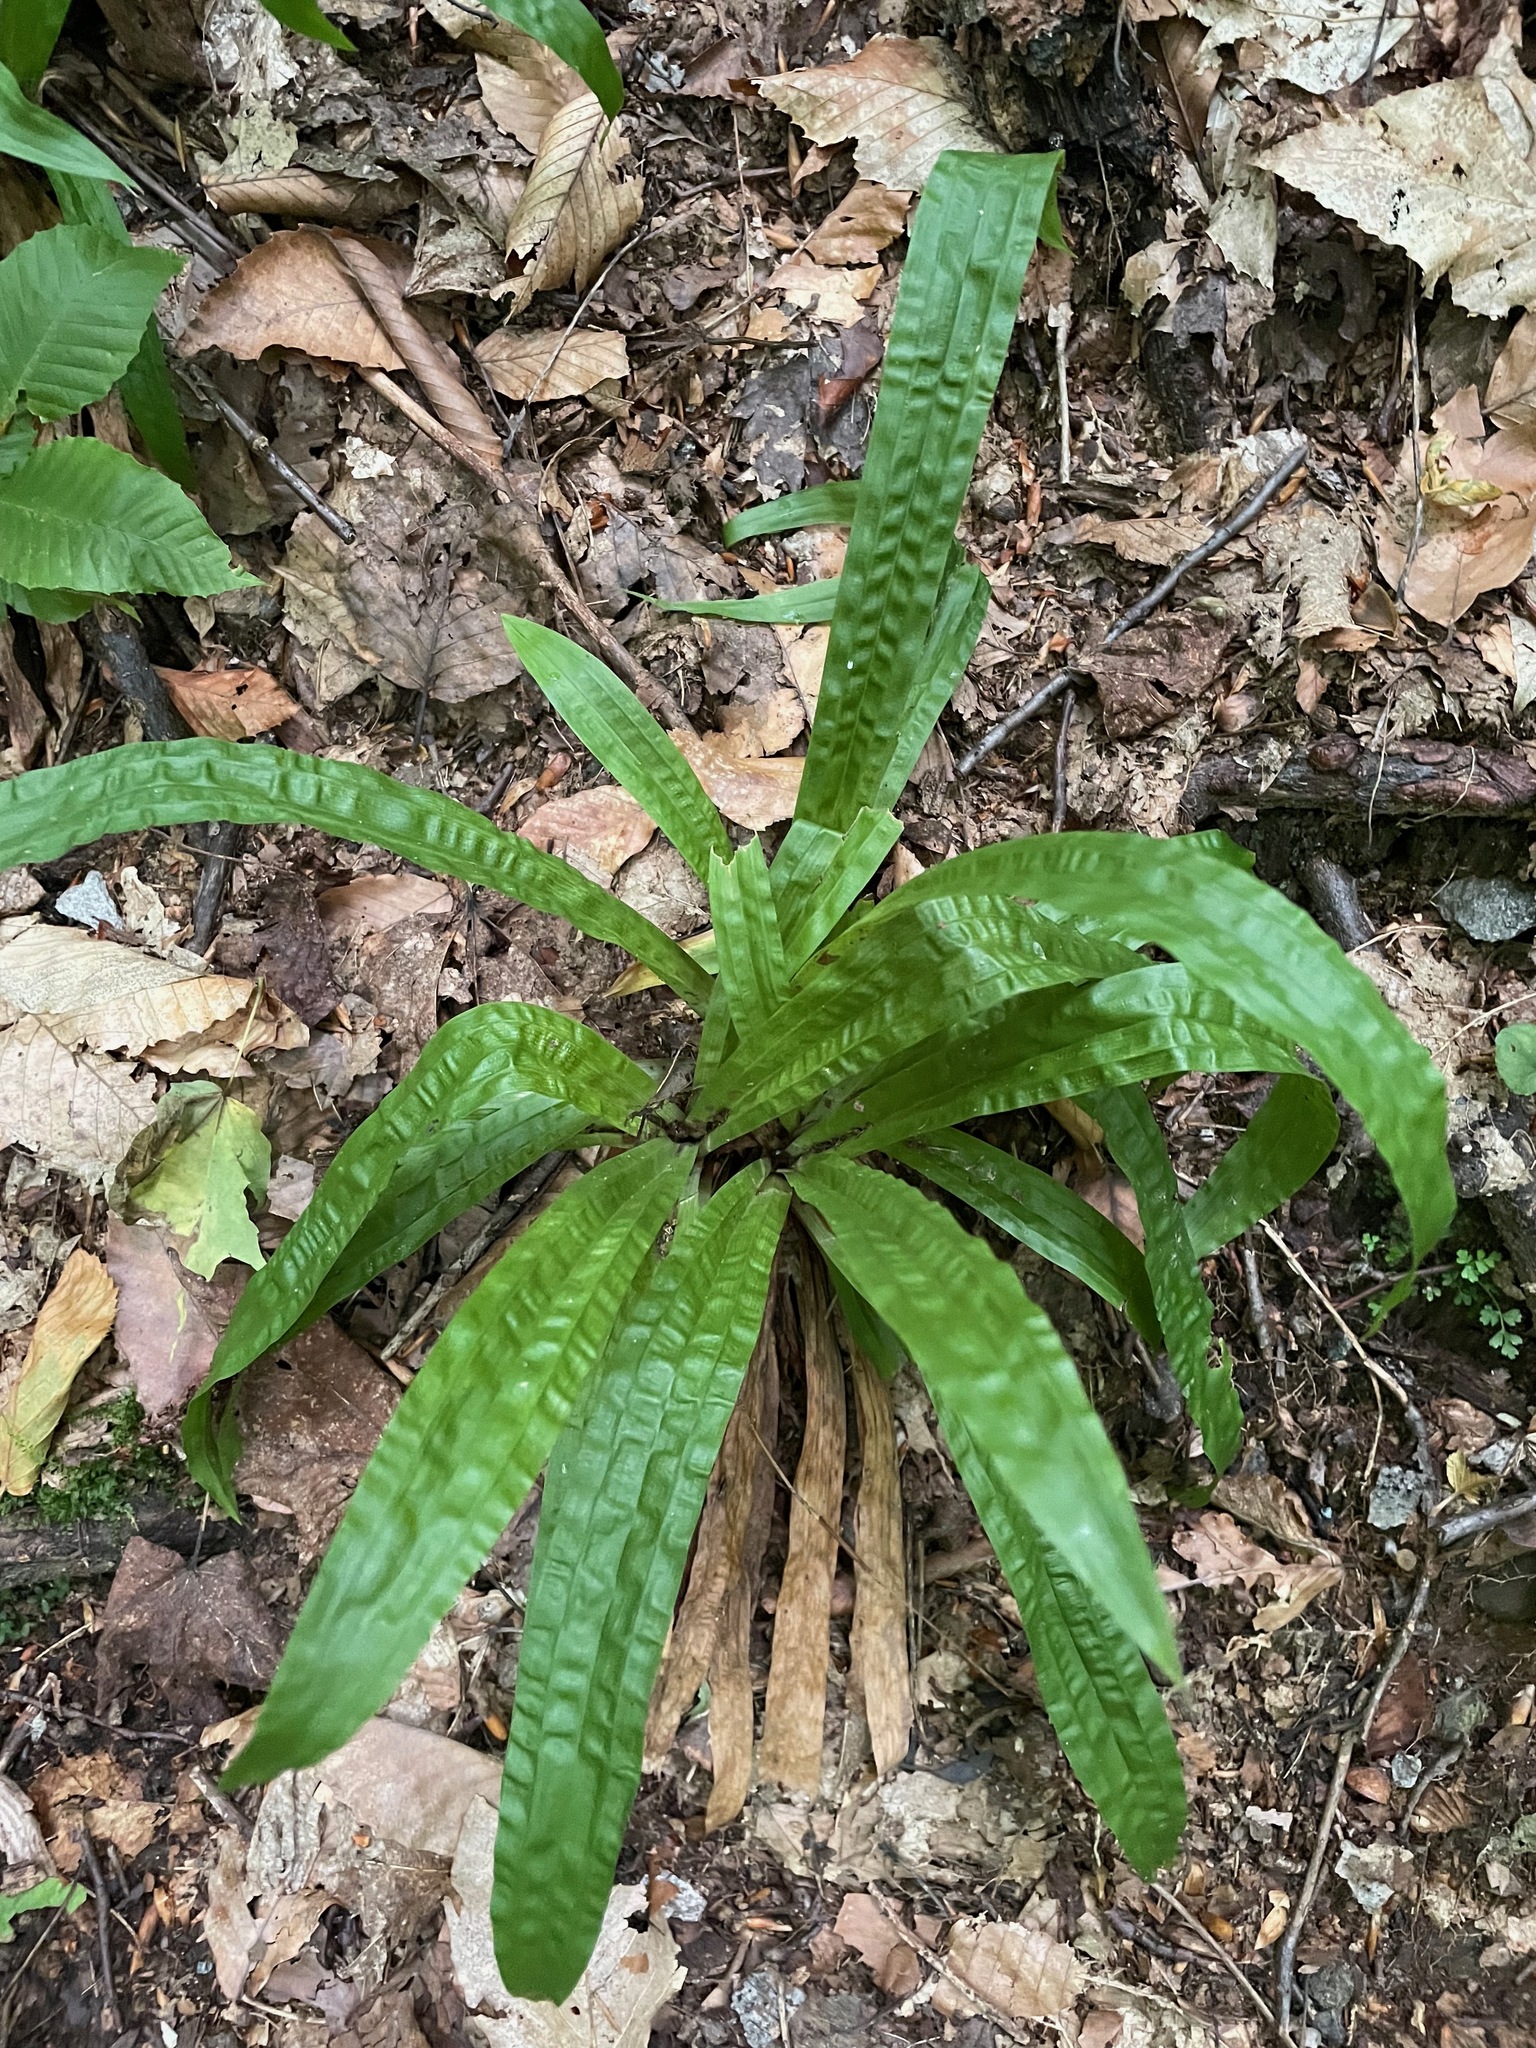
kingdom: Plantae
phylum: Tracheophyta
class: Liliopsida
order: Poales
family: Cyperaceae
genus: Carex
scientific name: Carex plantaginea
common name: Plantain-leaved sedge
